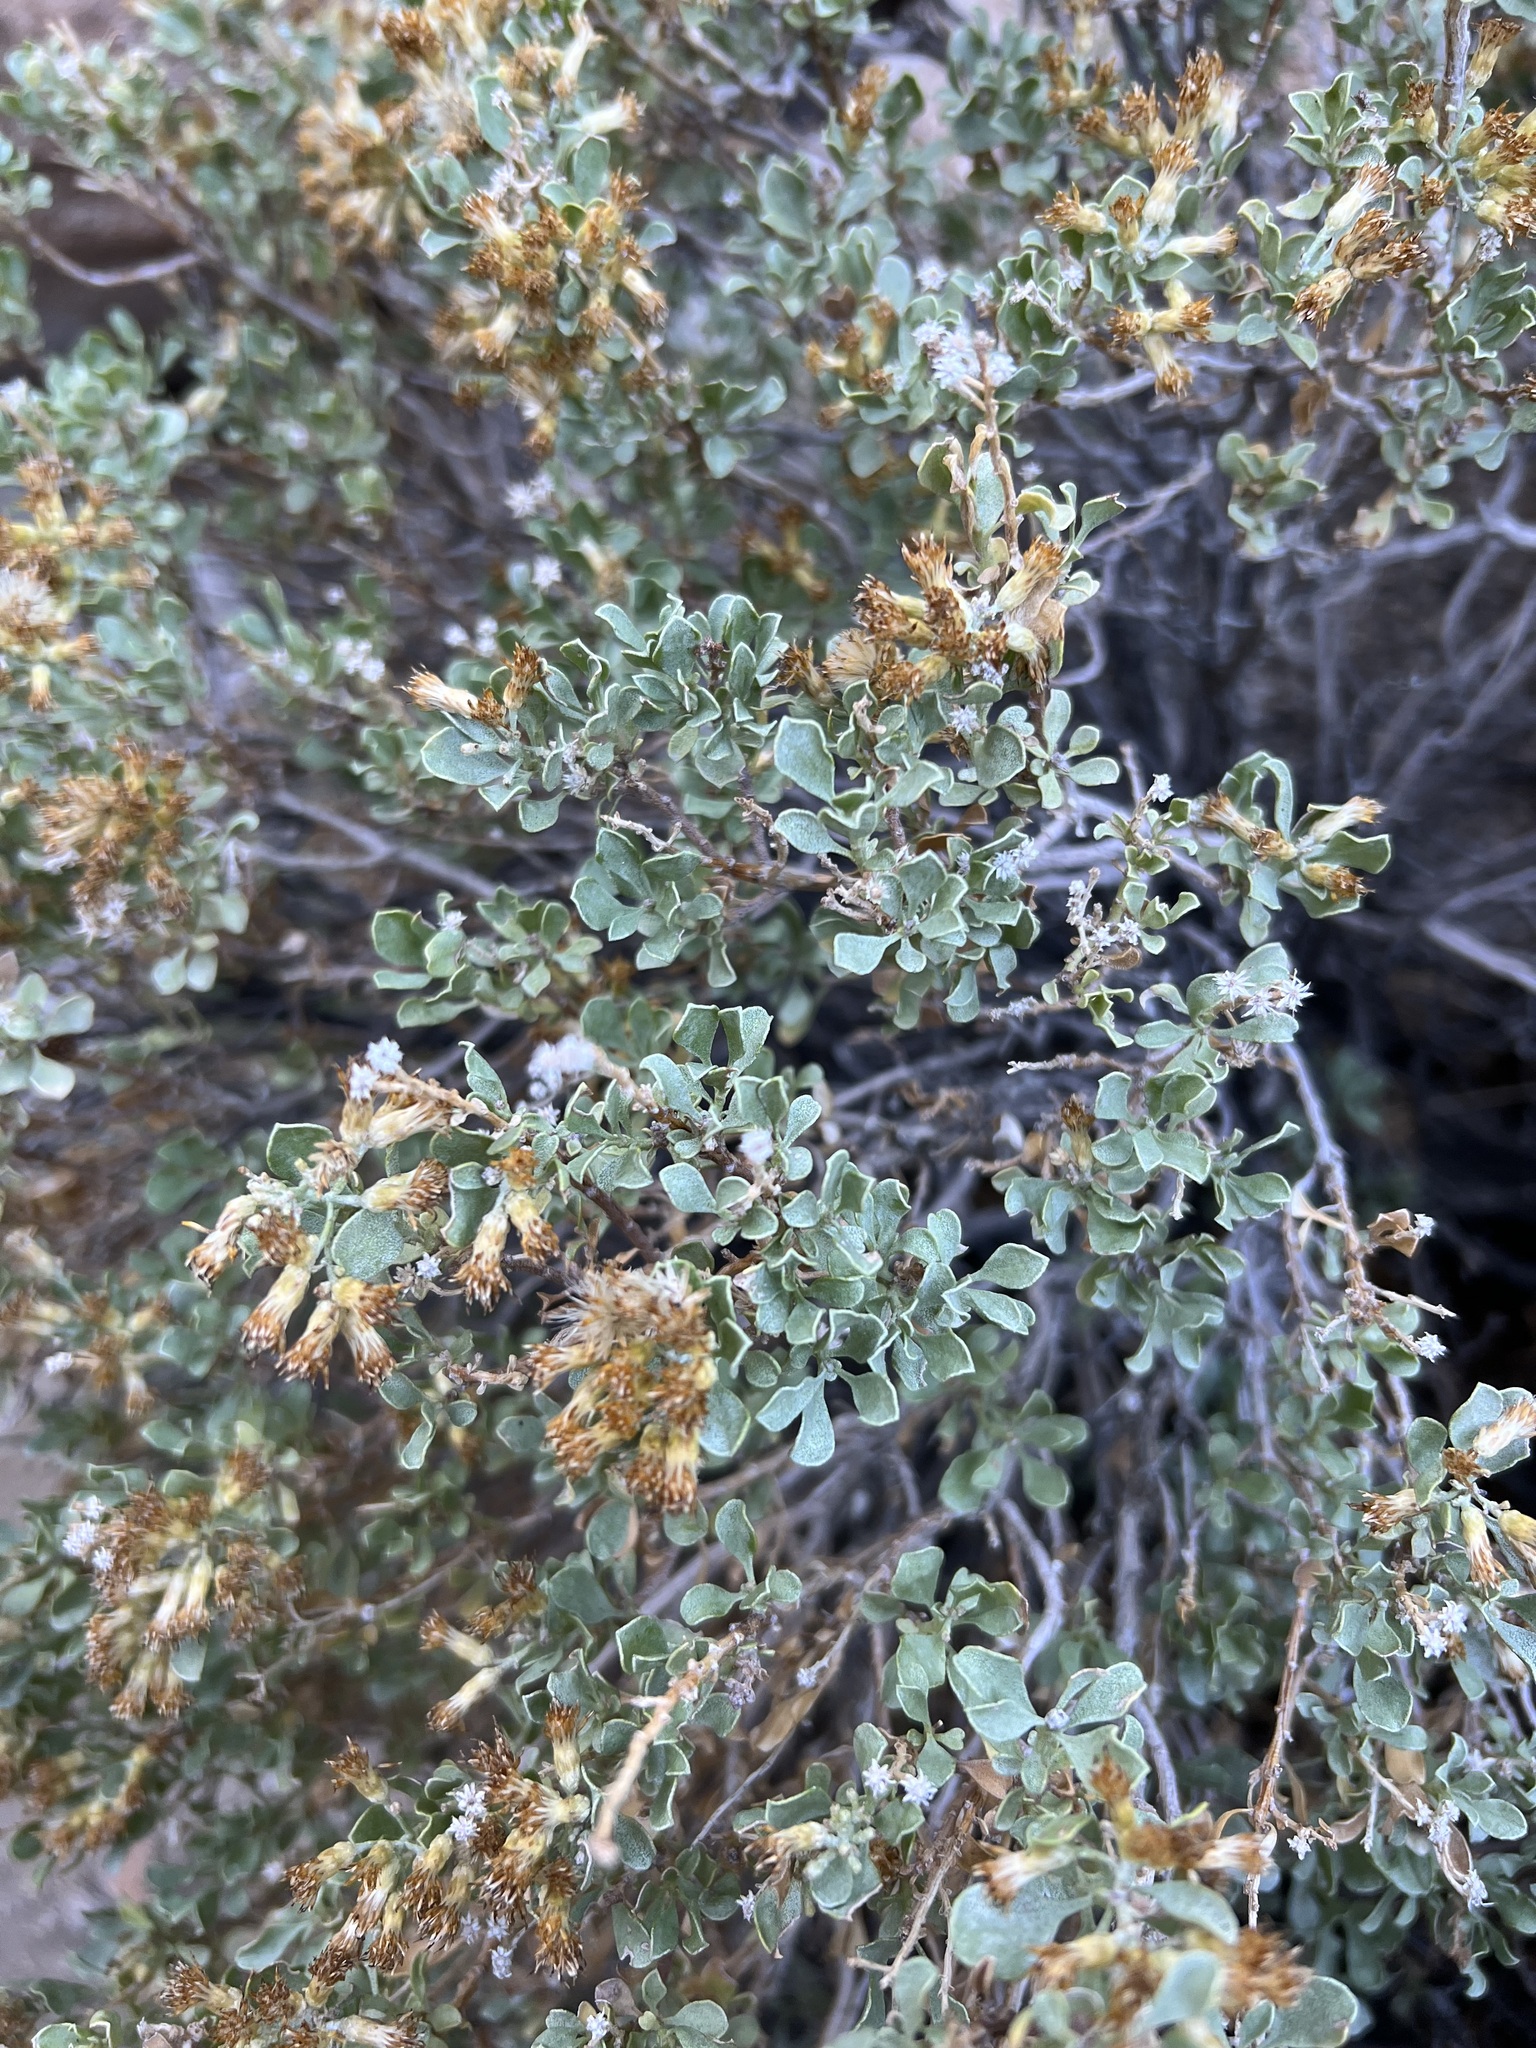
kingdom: Plantae
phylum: Tracheophyta
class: Magnoliopsida
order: Asterales
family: Asteraceae
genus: Ericameria
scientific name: Ericameria cuneata
